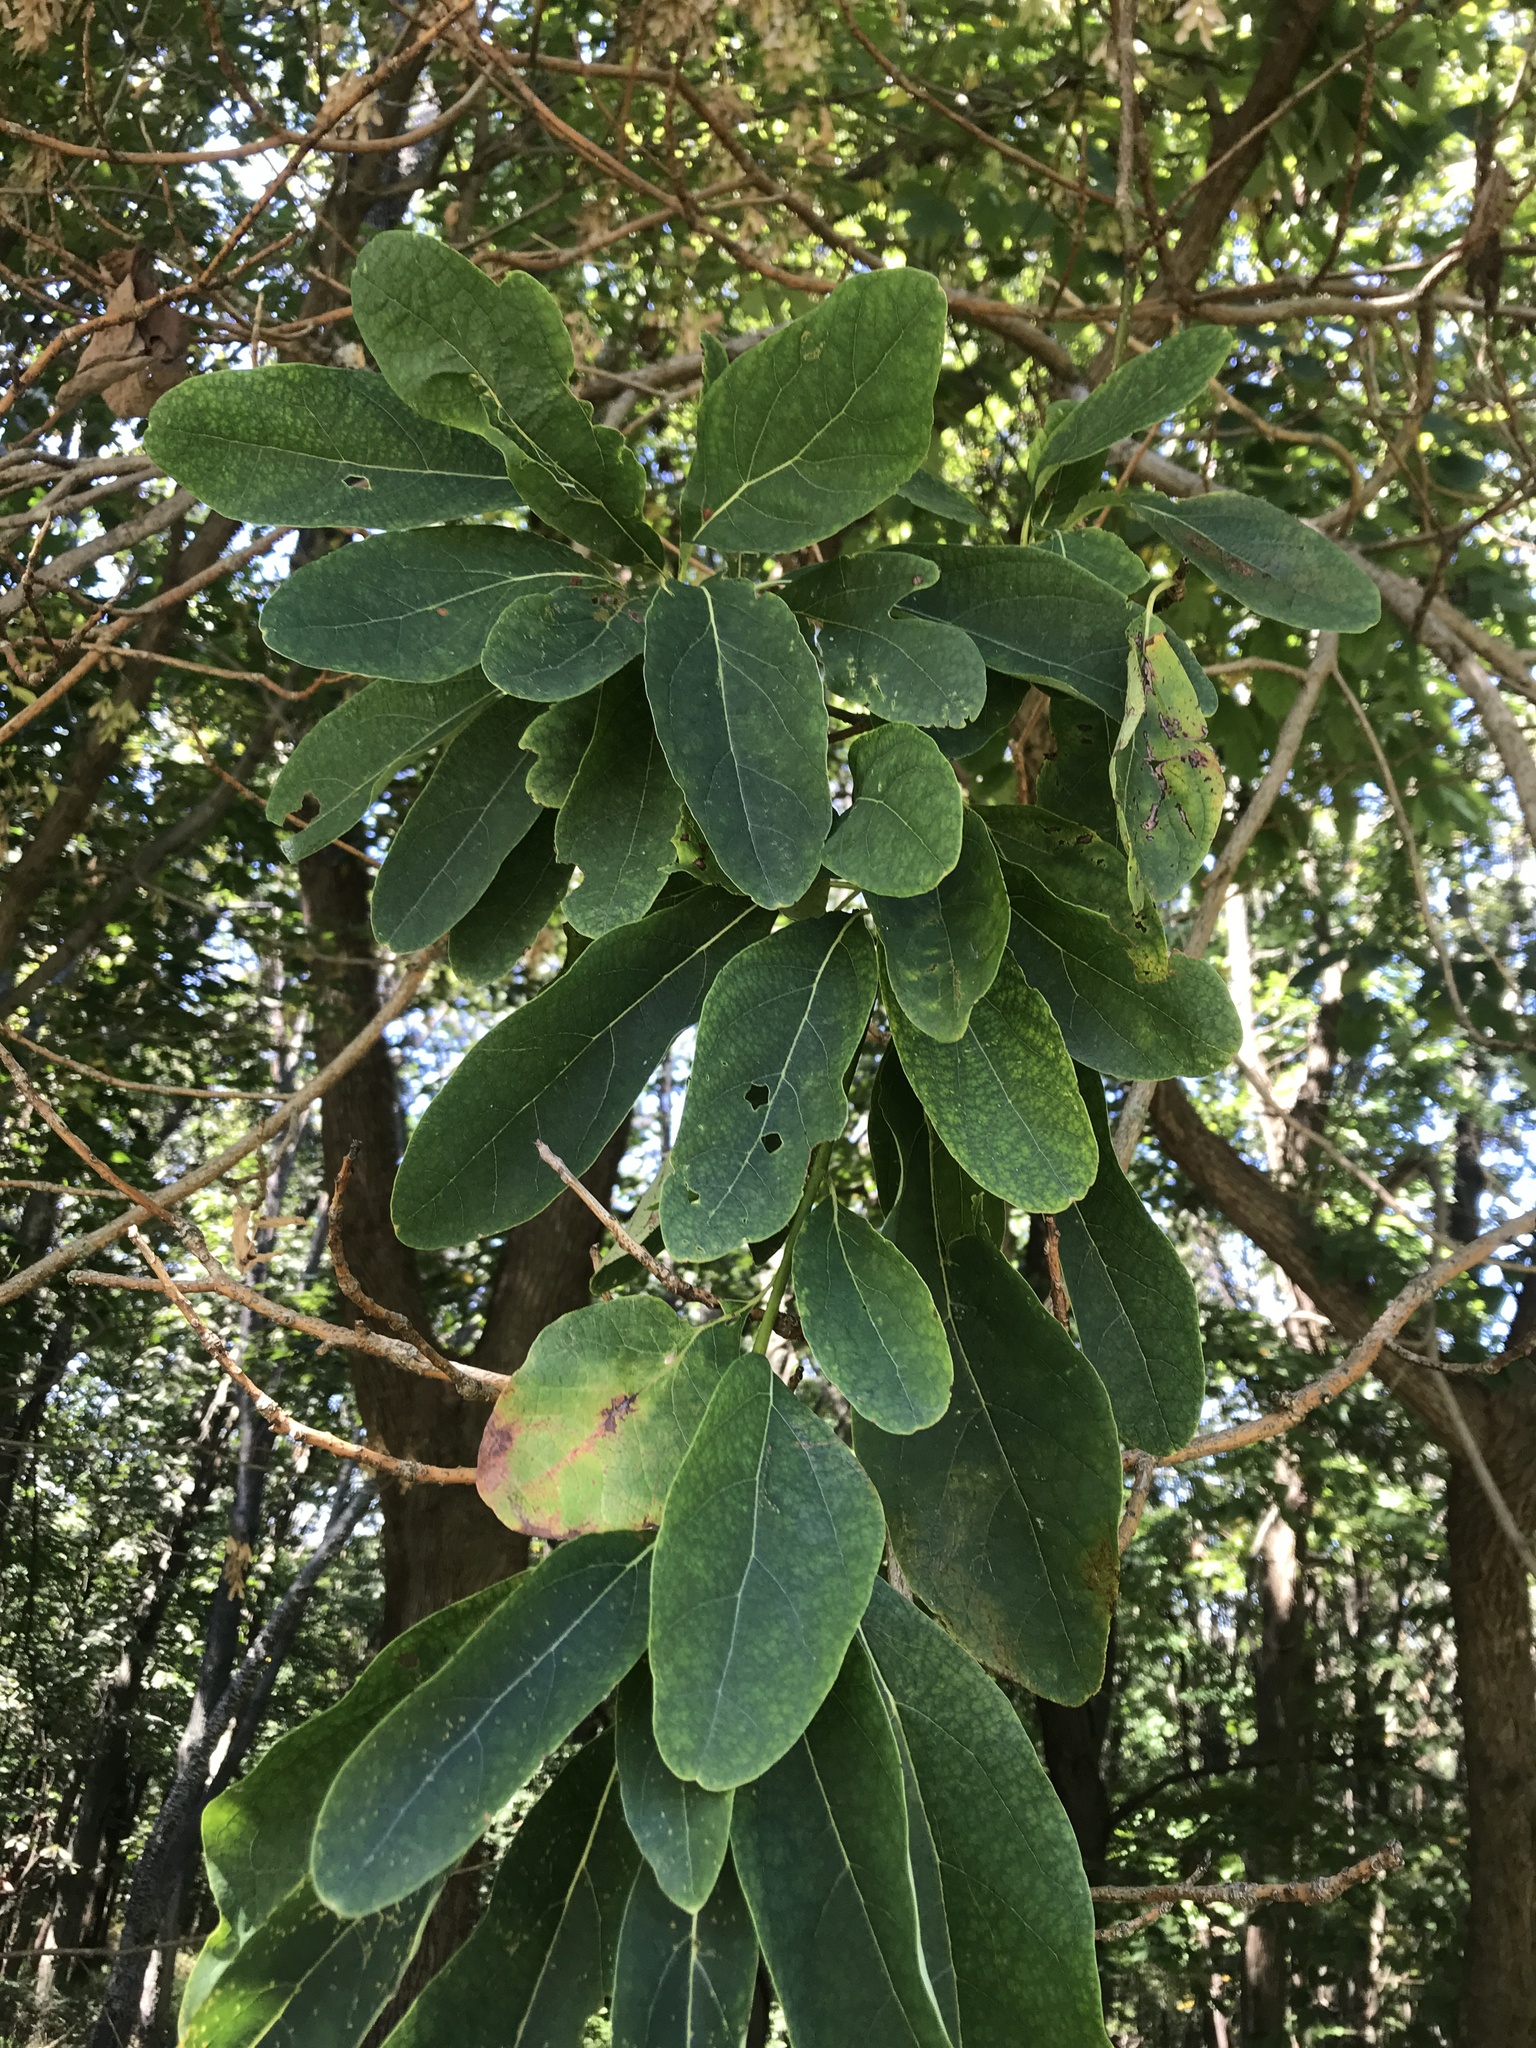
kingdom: Plantae
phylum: Tracheophyta
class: Magnoliopsida
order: Laurales
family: Lauraceae
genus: Sassafras
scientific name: Sassafras albidum
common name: Sassafras
